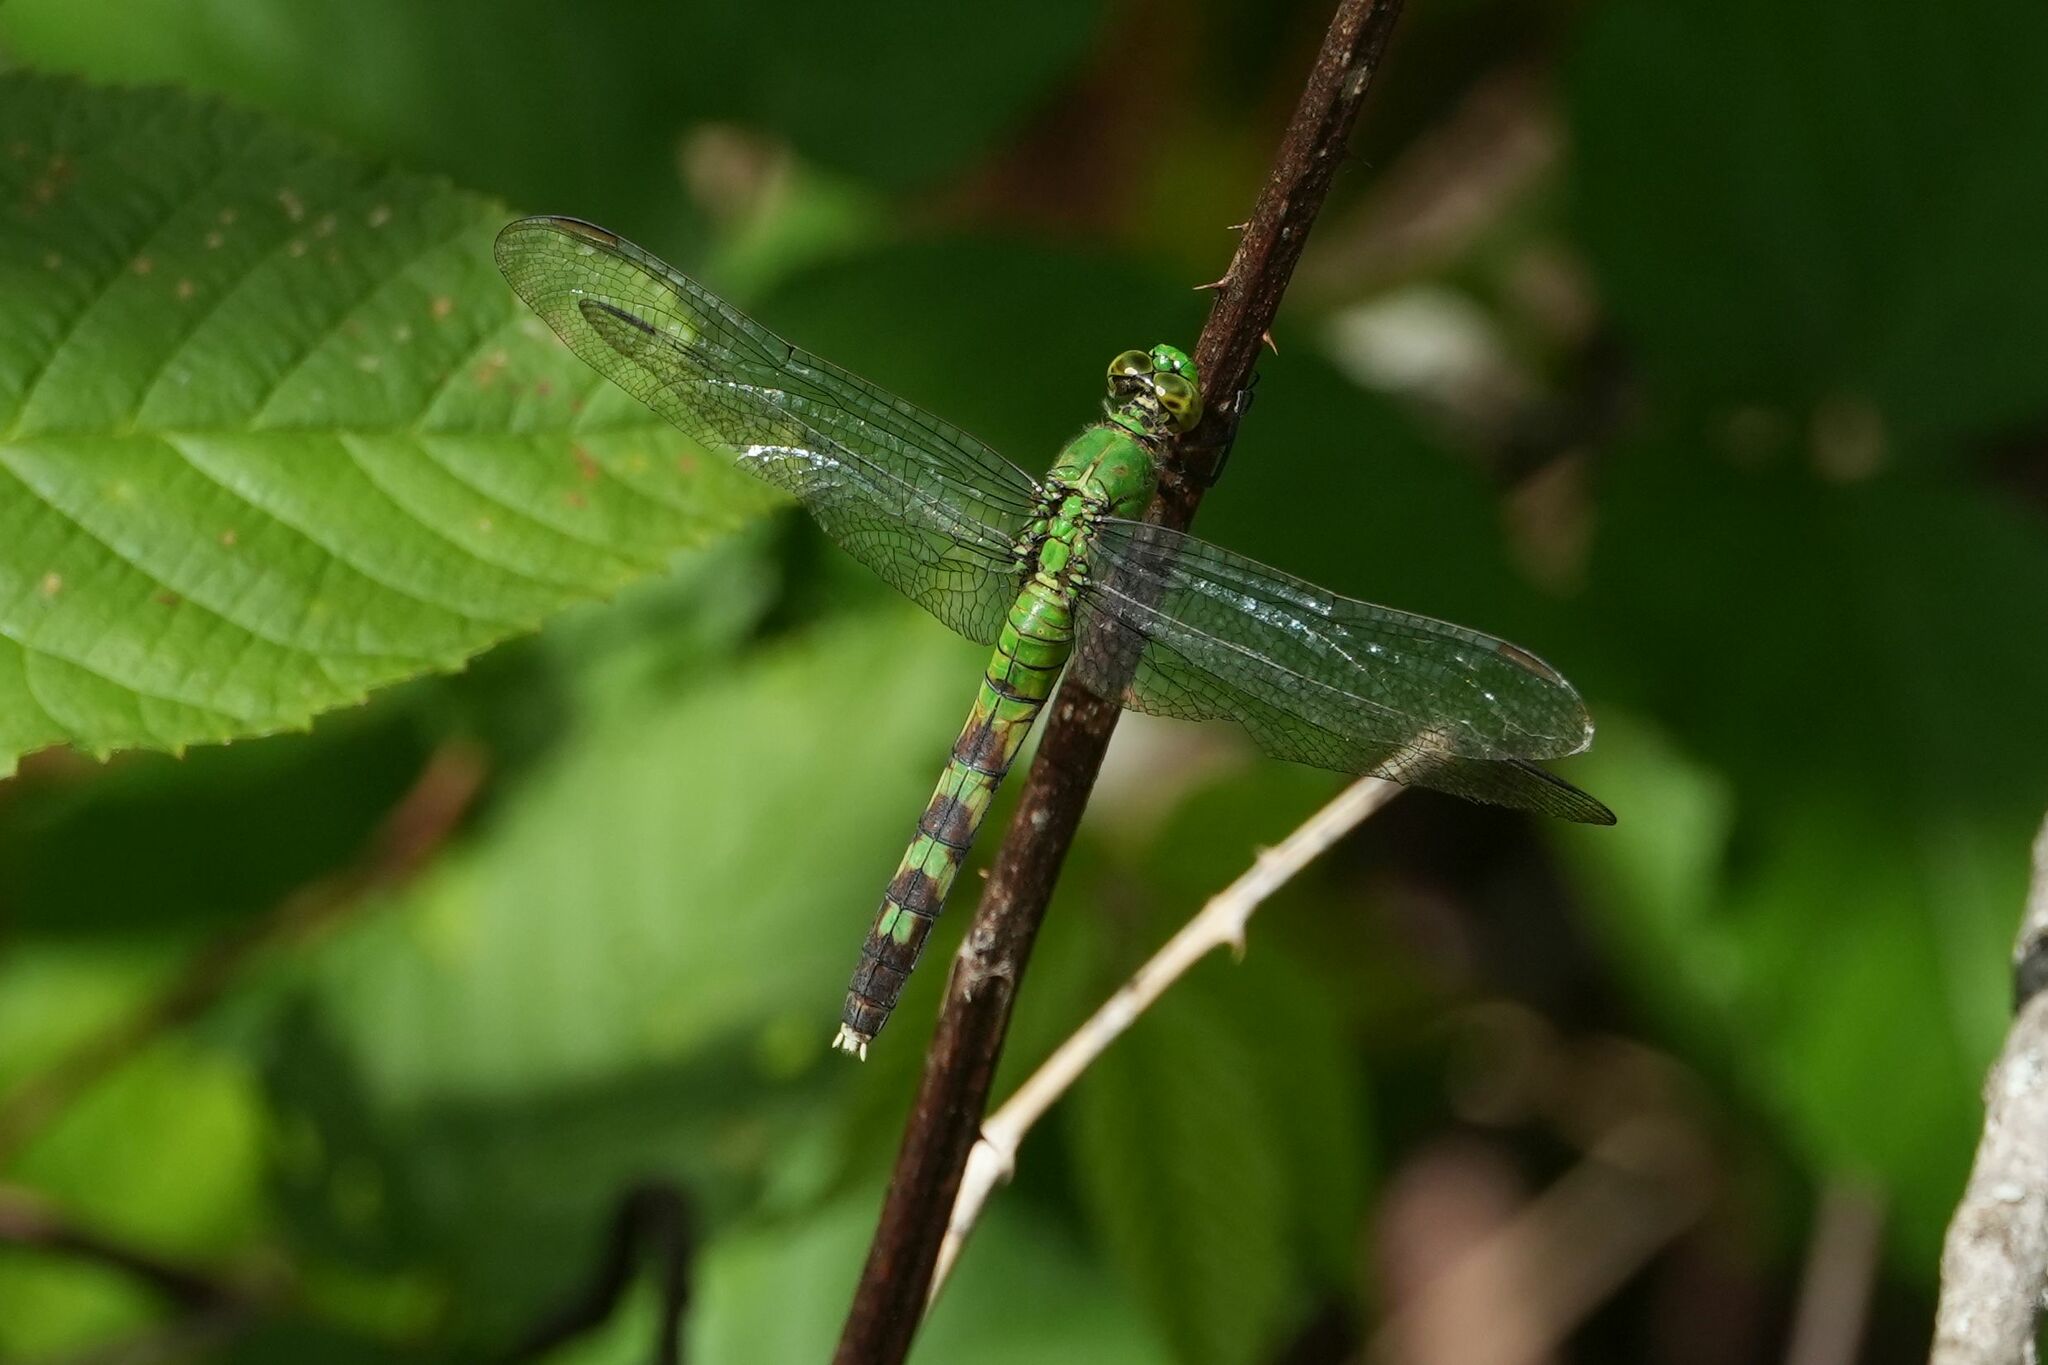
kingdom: Animalia
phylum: Arthropoda
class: Insecta
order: Odonata
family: Libellulidae
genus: Erythemis
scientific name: Erythemis simplicicollis
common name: Eastern pondhawk
